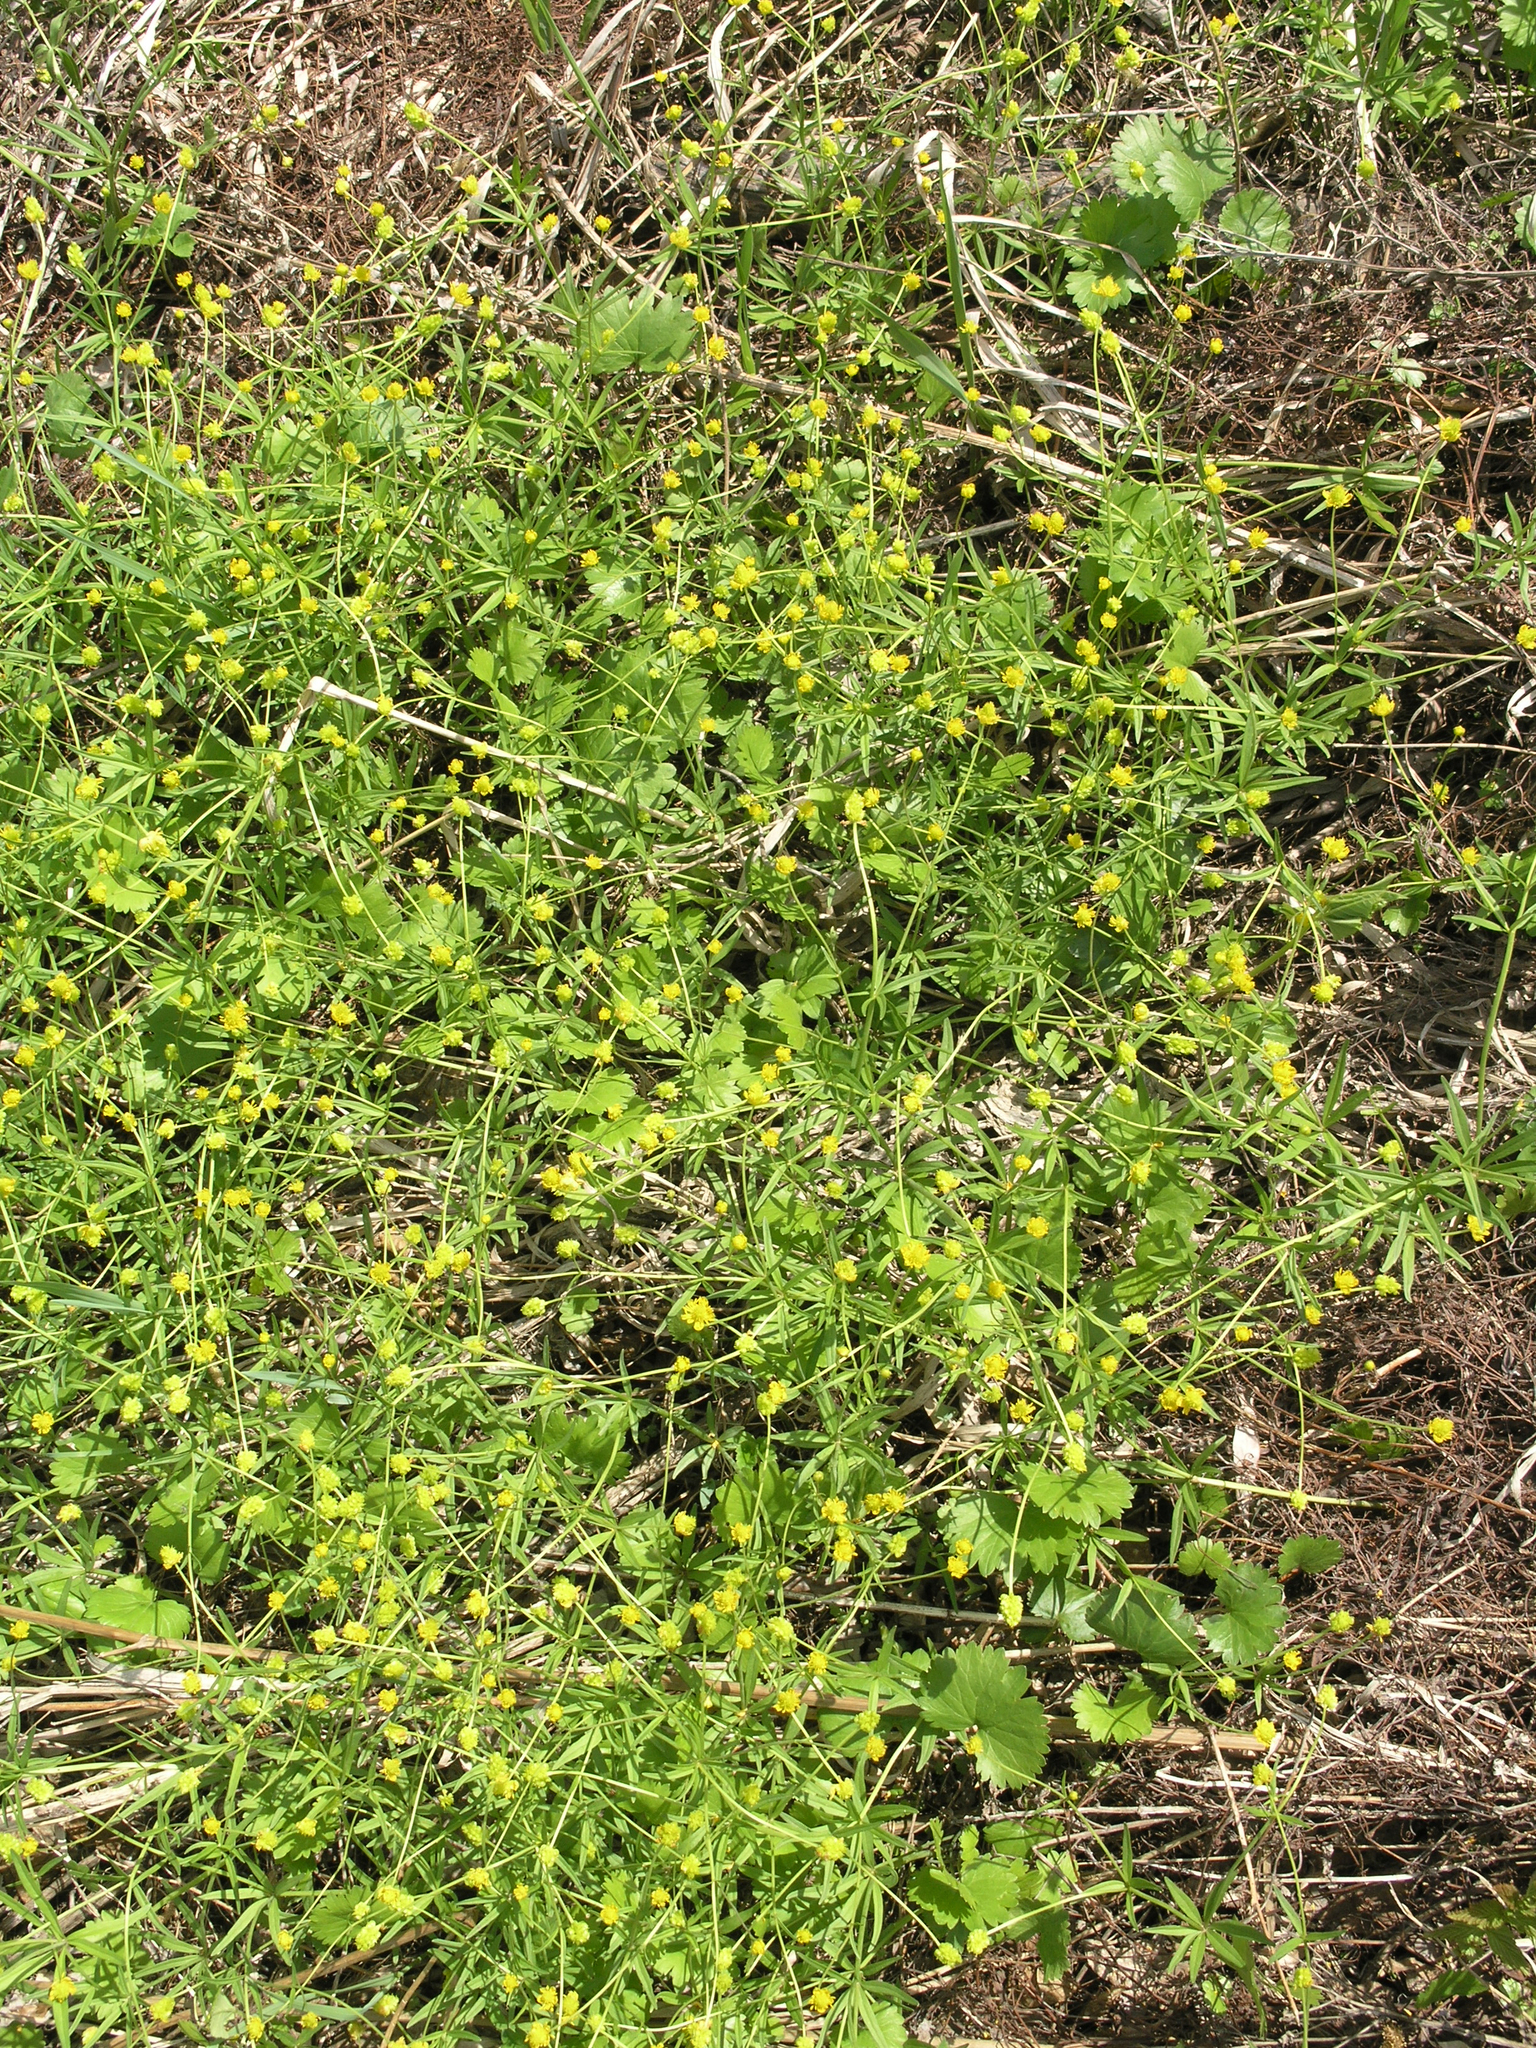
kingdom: Plantae
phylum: Tracheophyta
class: Magnoliopsida
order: Ranunculales
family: Ranunculaceae
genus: Ranunculus
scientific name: Ranunculus monophyllus
